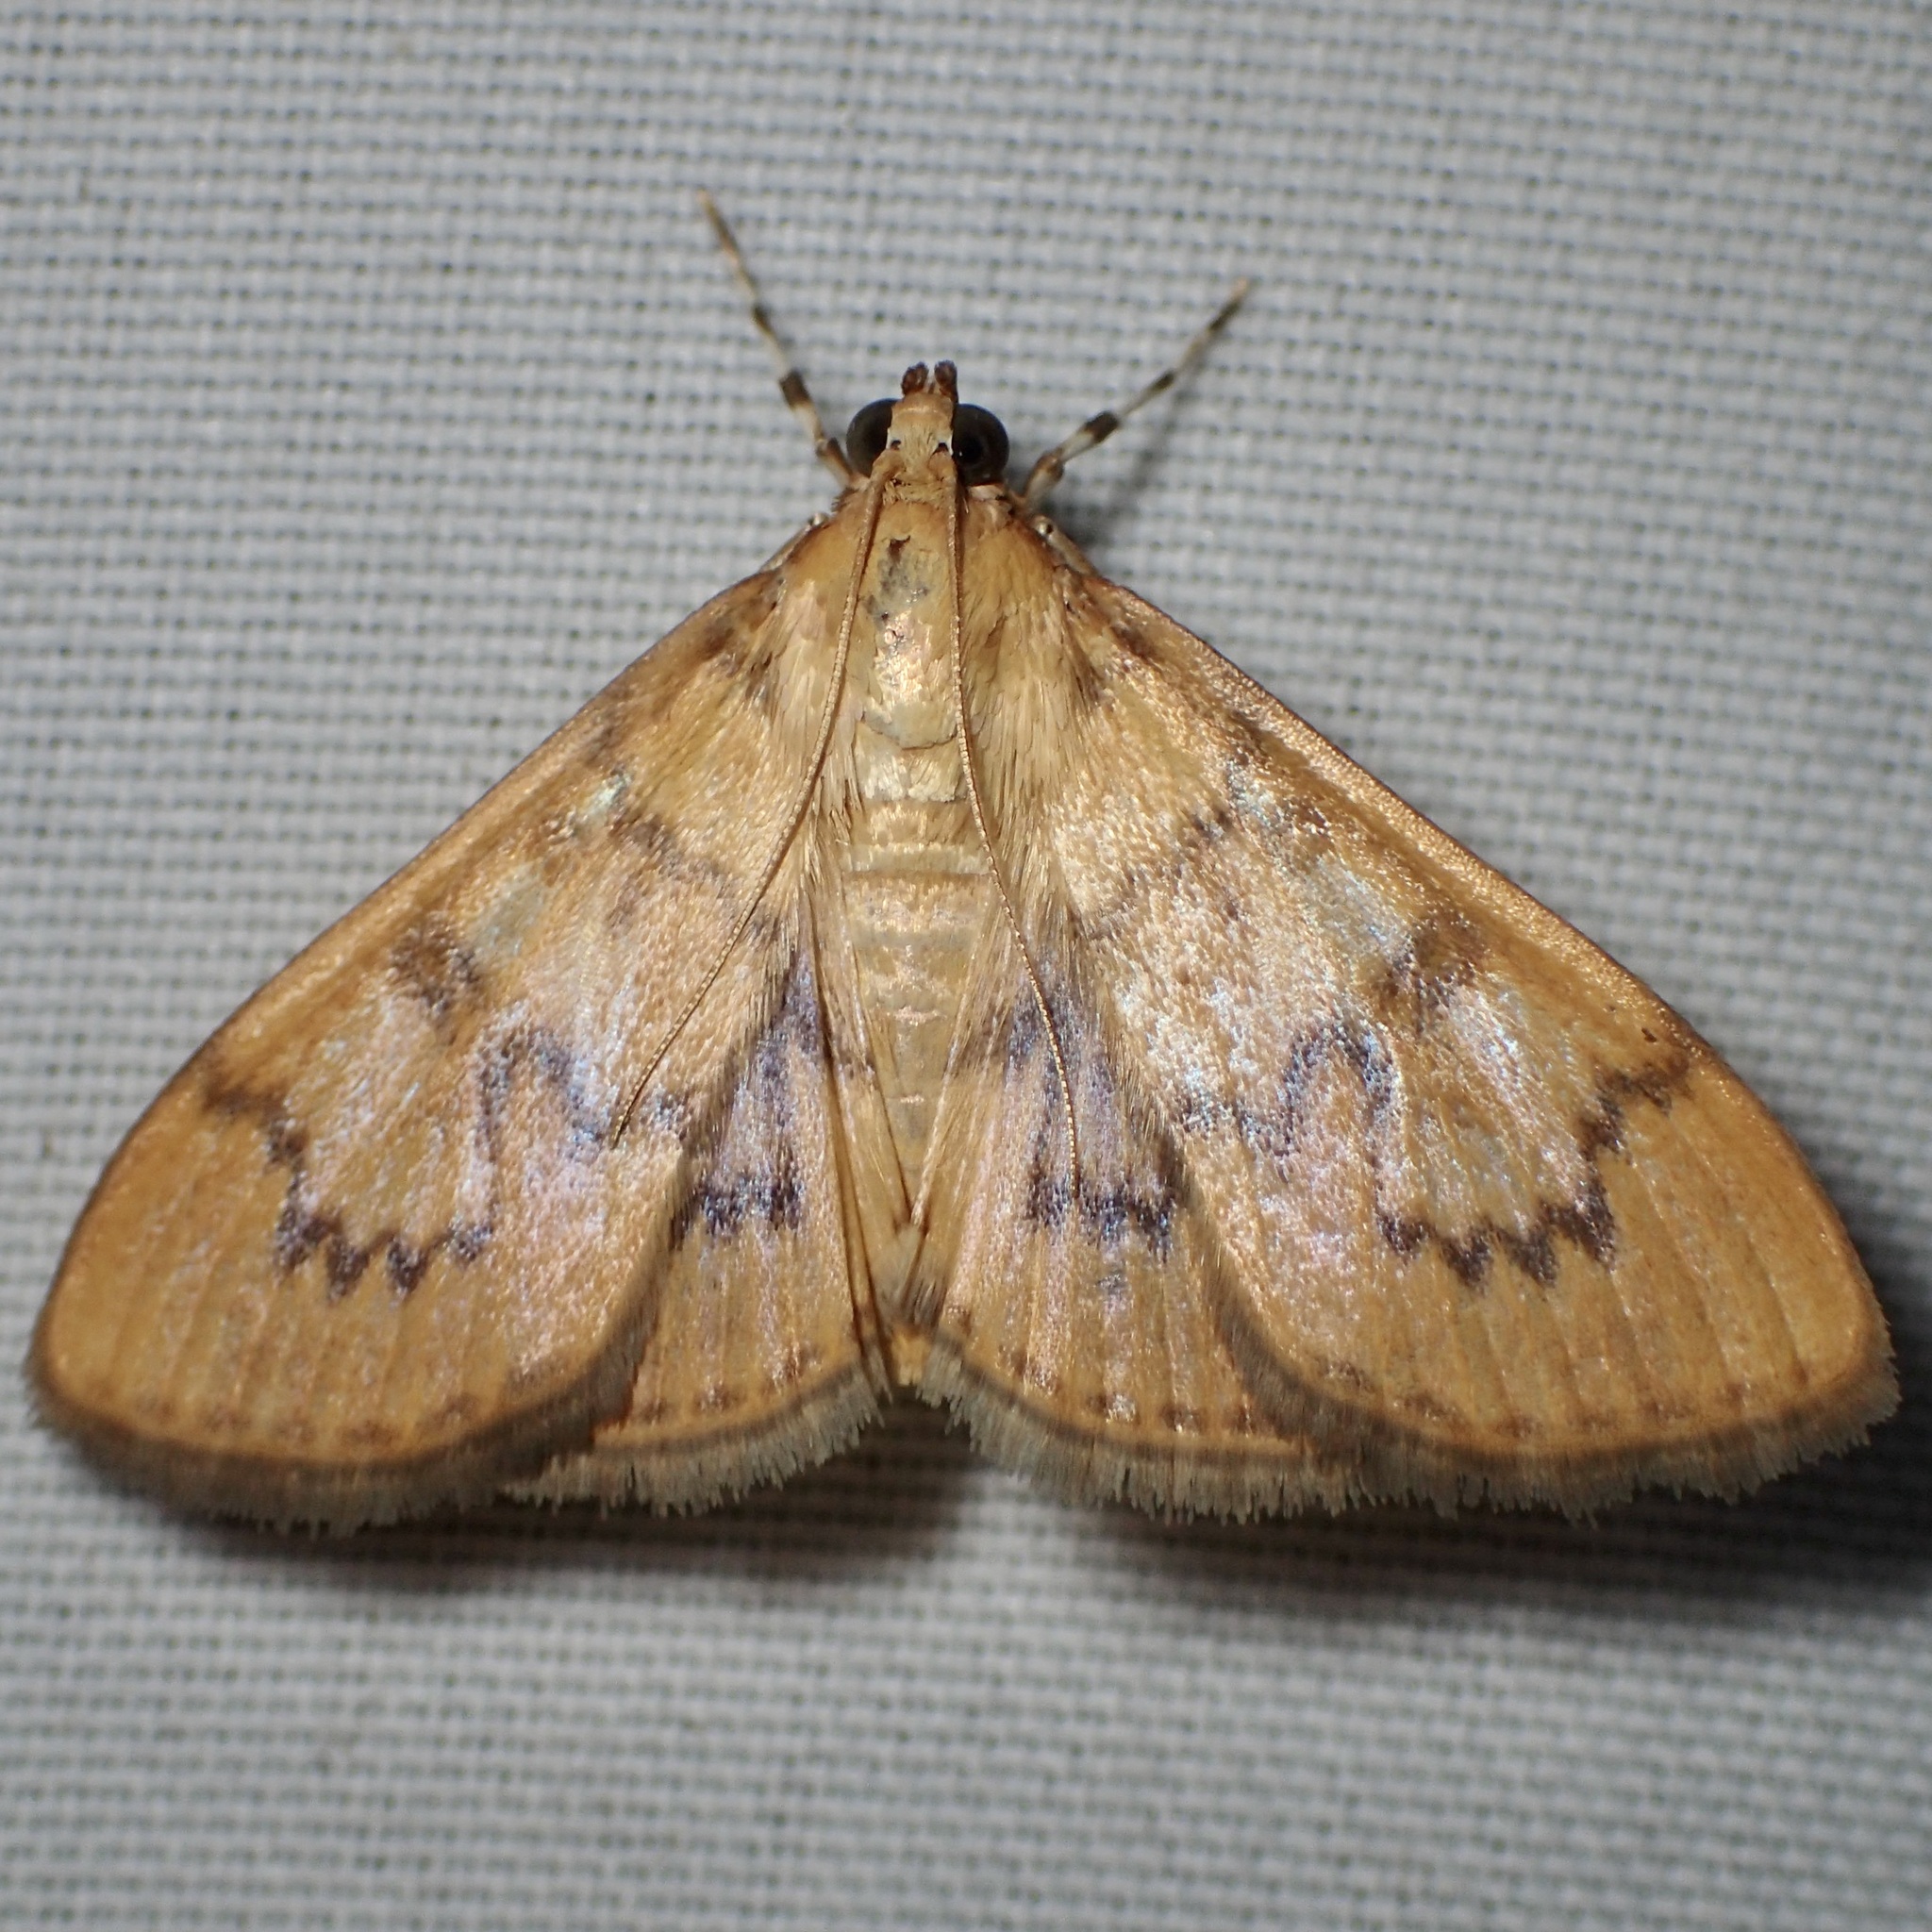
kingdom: Animalia
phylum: Arthropoda
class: Insecta
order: Lepidoptera
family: Crambidae
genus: Pilocrocis
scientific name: Pilocrocis dryalis
